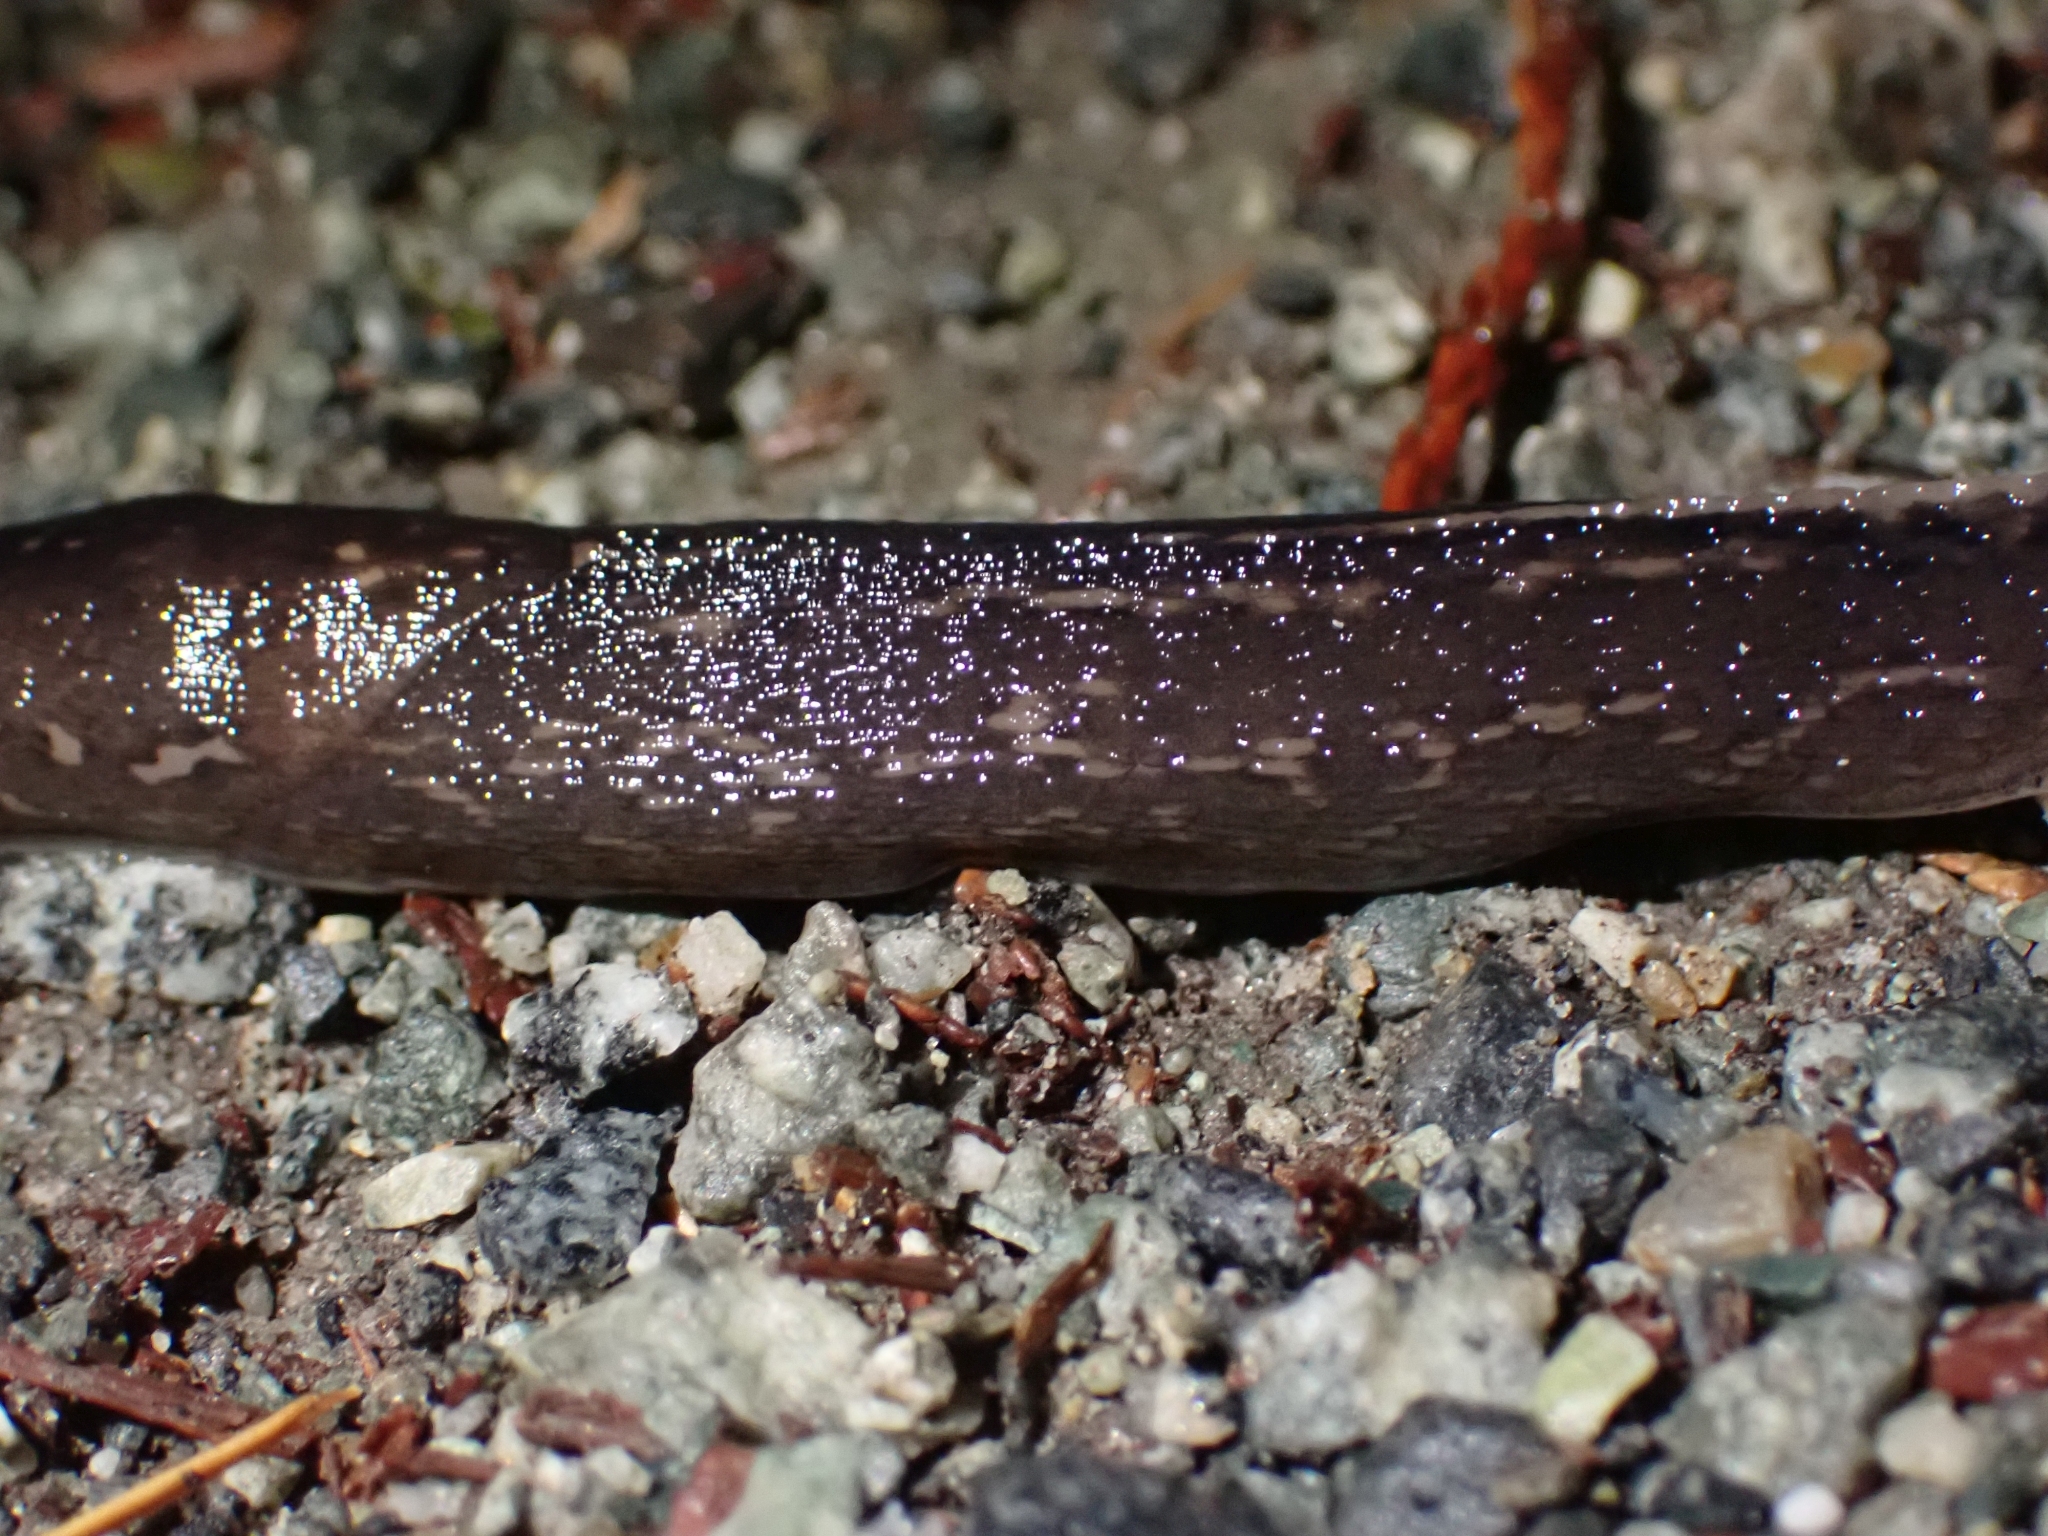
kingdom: Animalia
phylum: Mollusca
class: Gastropoda
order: Stylommatophora
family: Limacidae
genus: Limax
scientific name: Limax maximus
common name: Great grey slug
